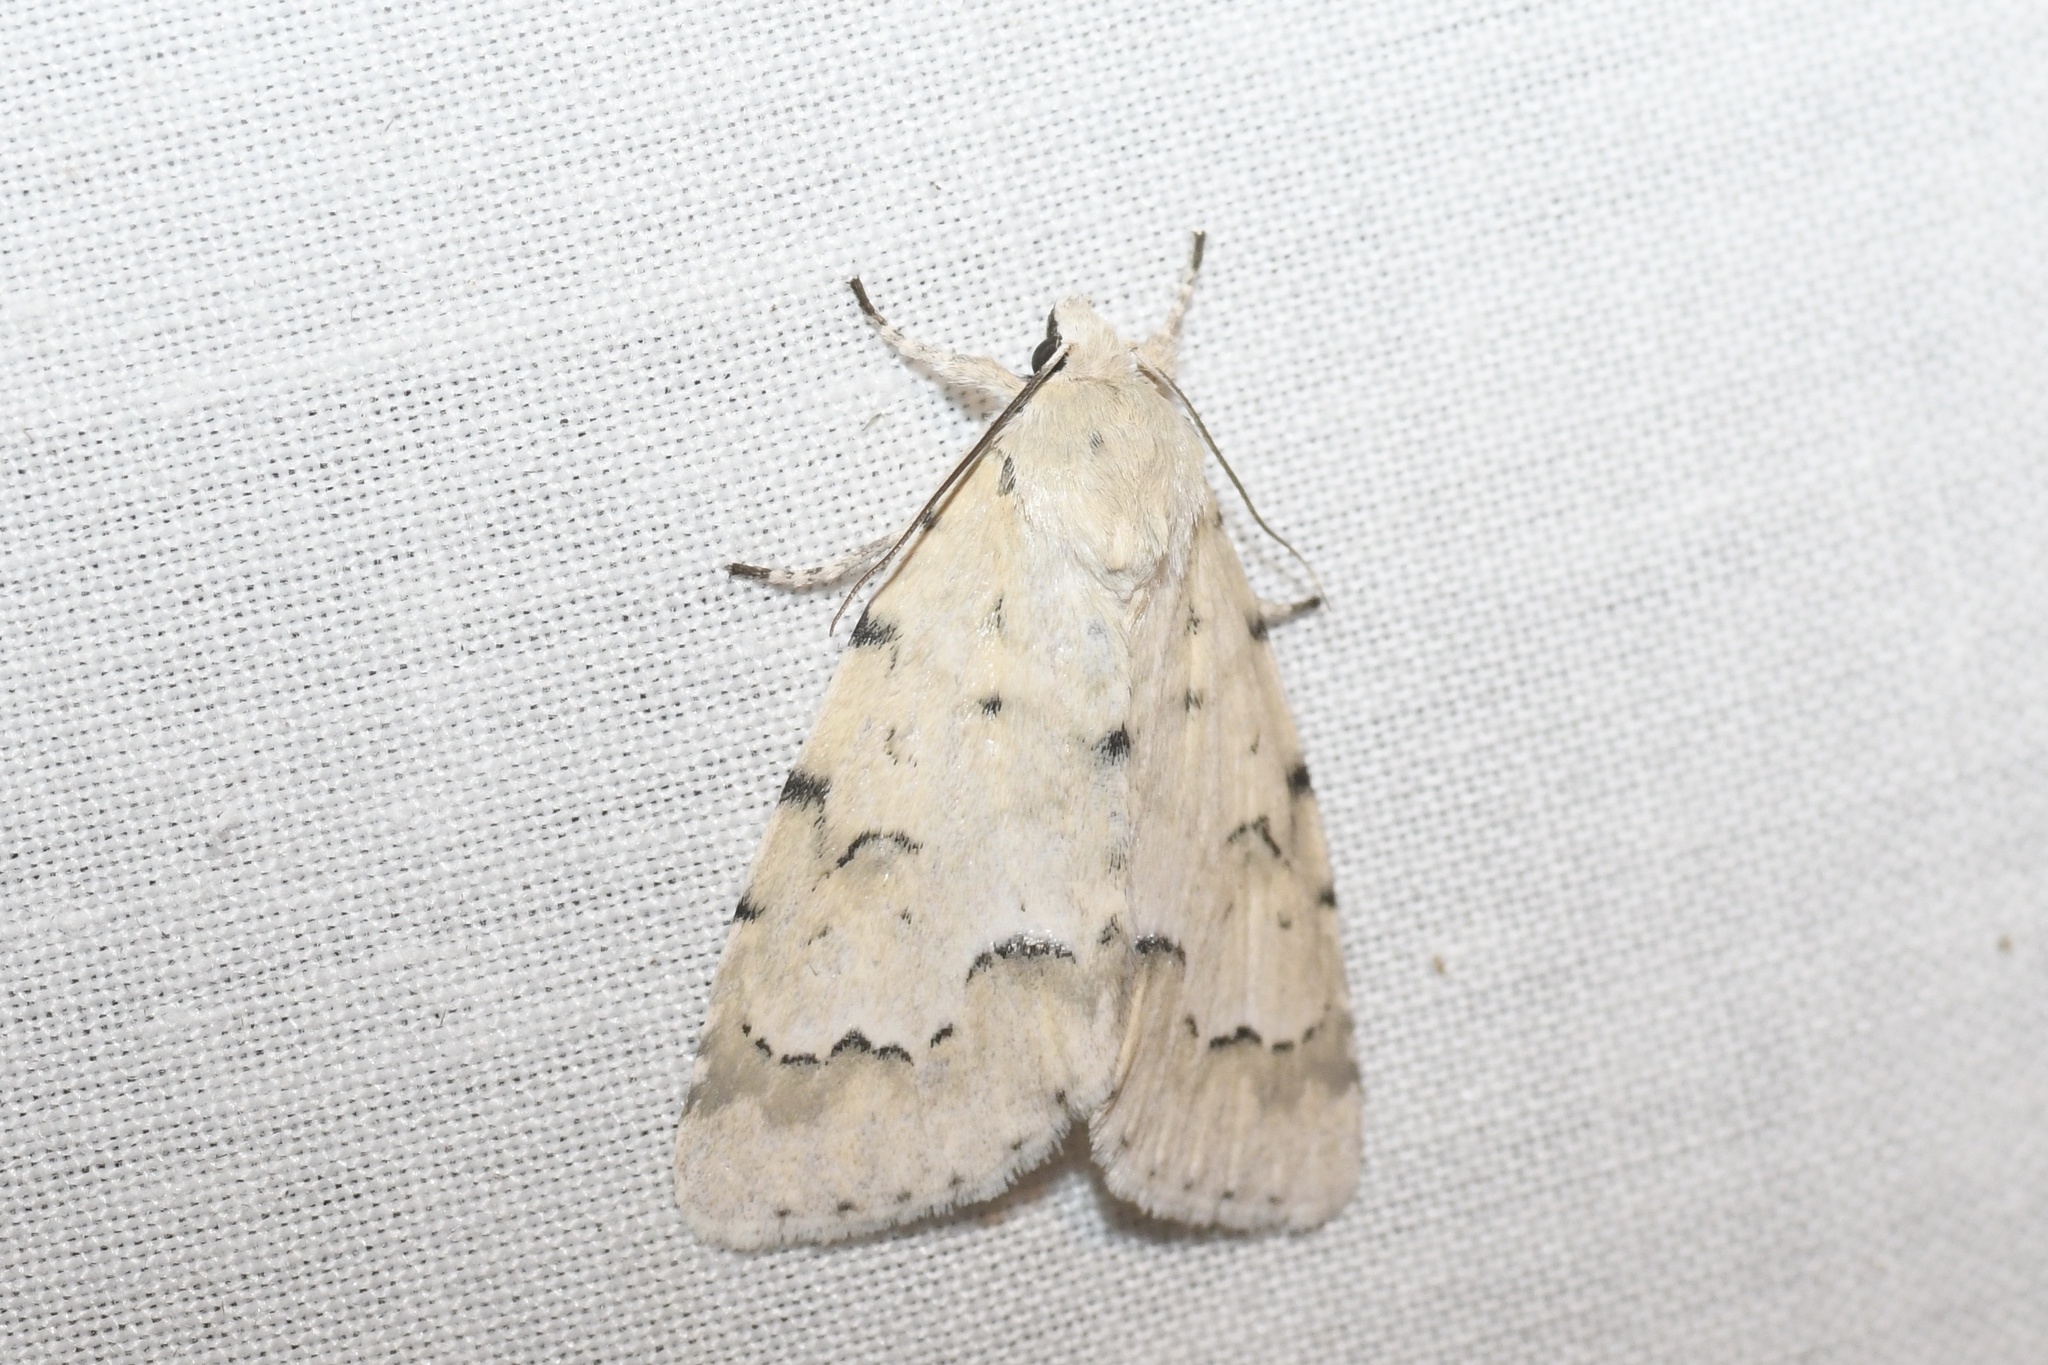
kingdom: Animalia
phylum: Arthropoda
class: Insecta
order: Lepidoptera
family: Noctuidae
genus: Acronicta
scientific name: Acronicta innotata
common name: Unmarked dagger
